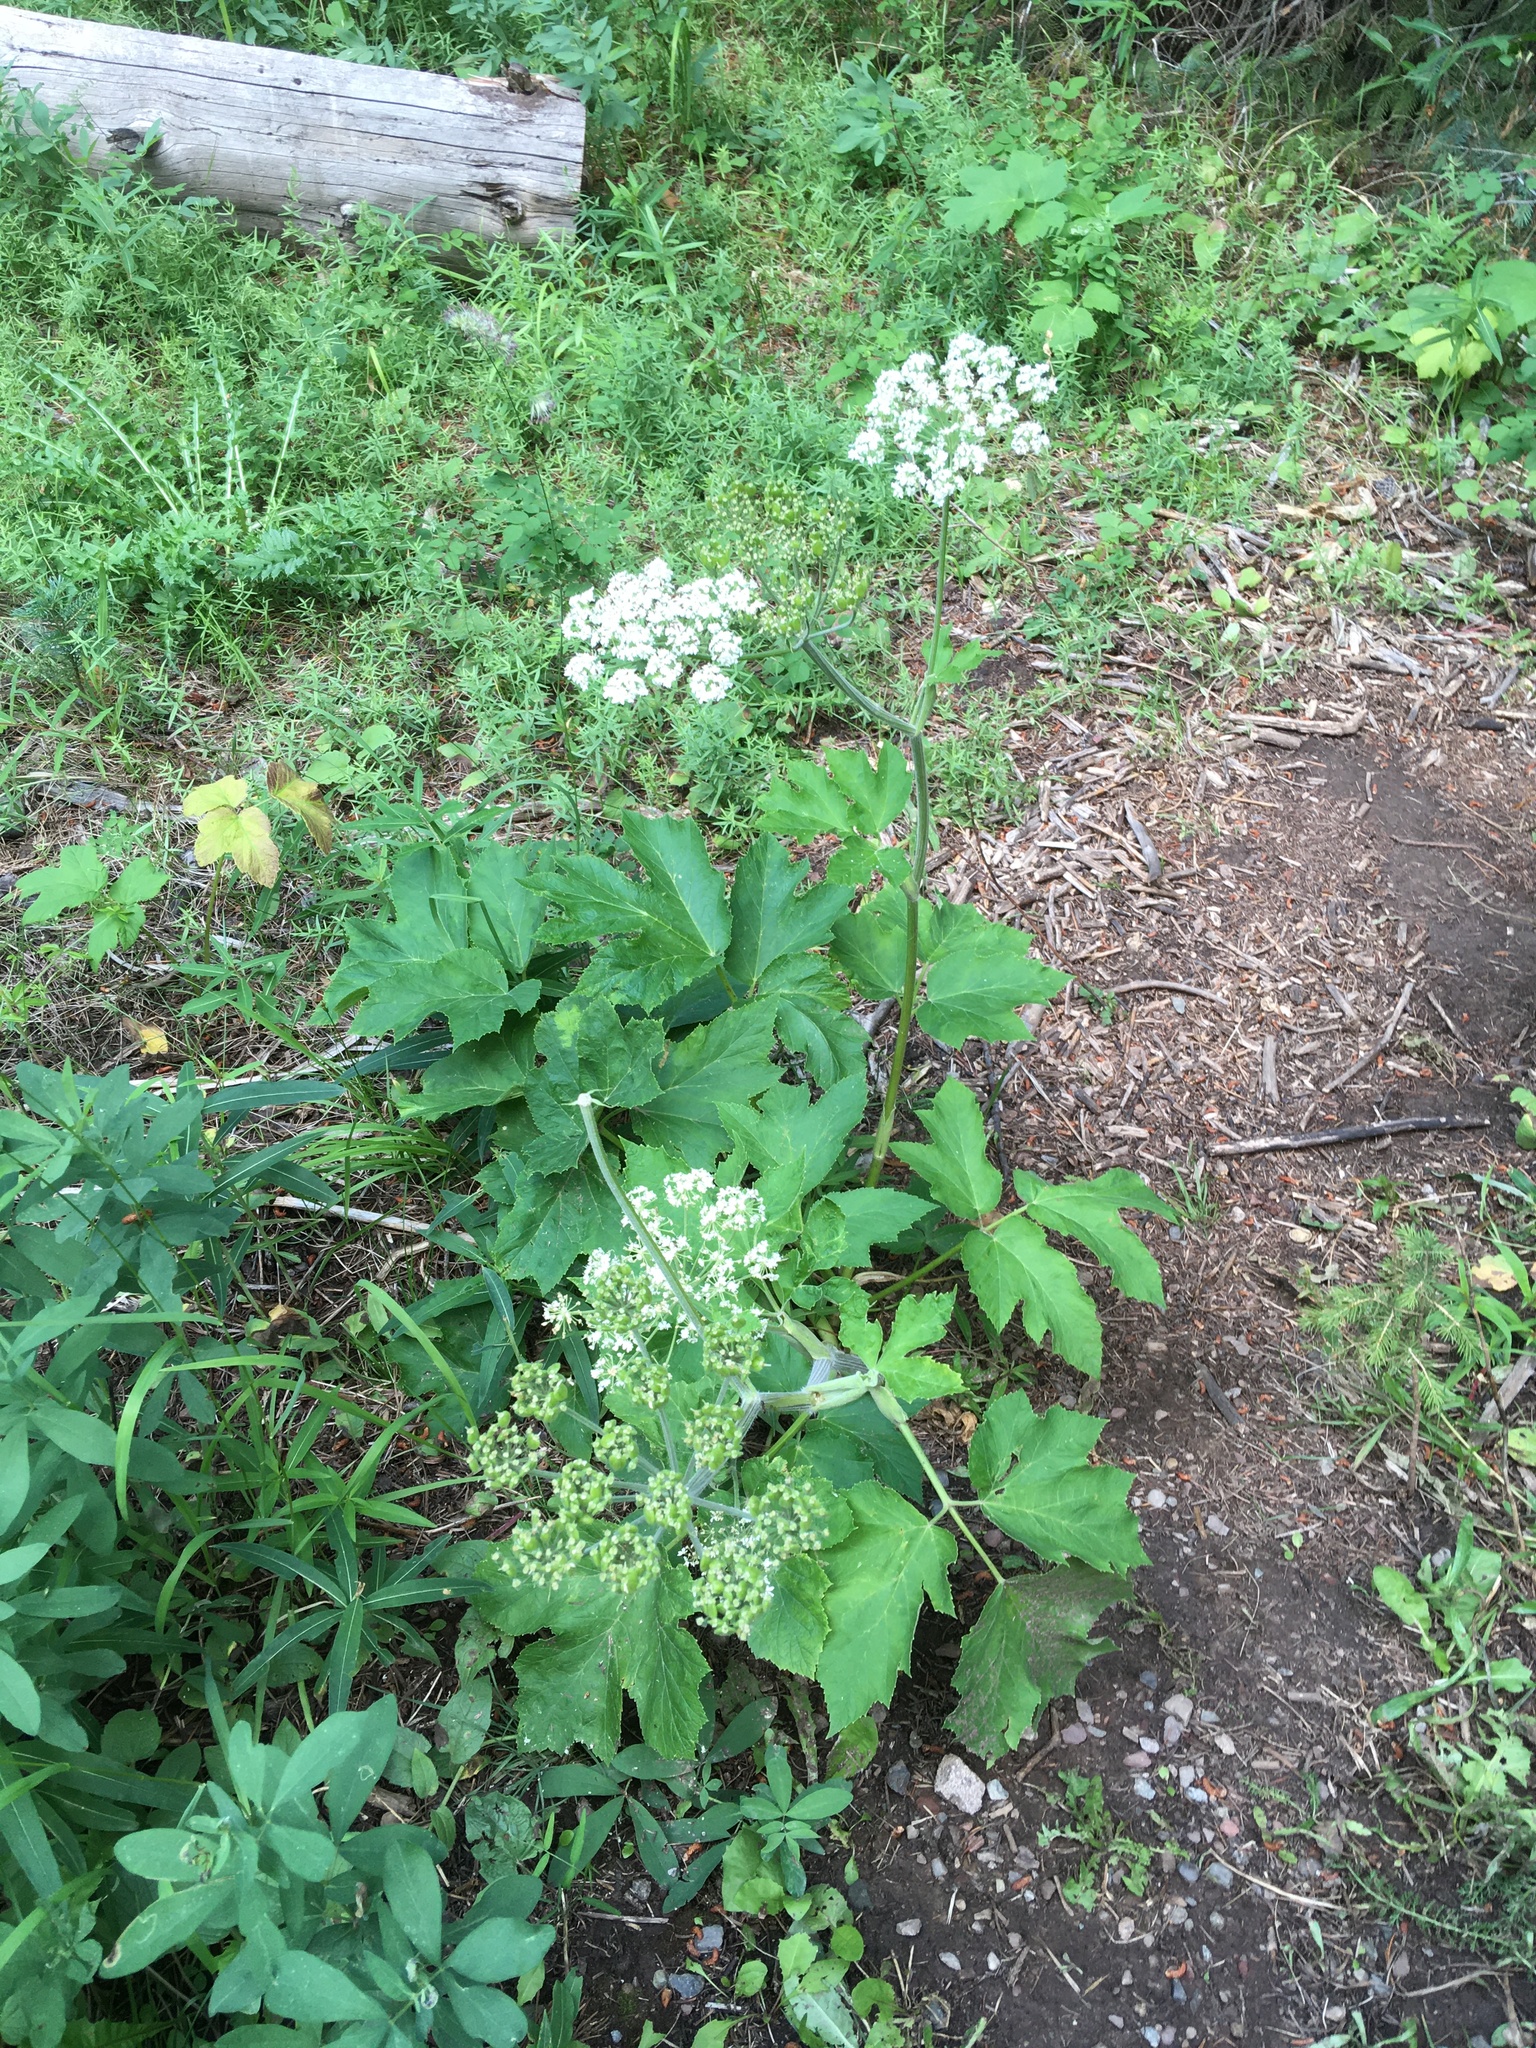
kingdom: Plantae
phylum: Tracheophyta
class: Magnoliopsida
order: Apiales
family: Apiaceae
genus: Heracleum
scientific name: Heracleum maximum
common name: American cow parsnip
